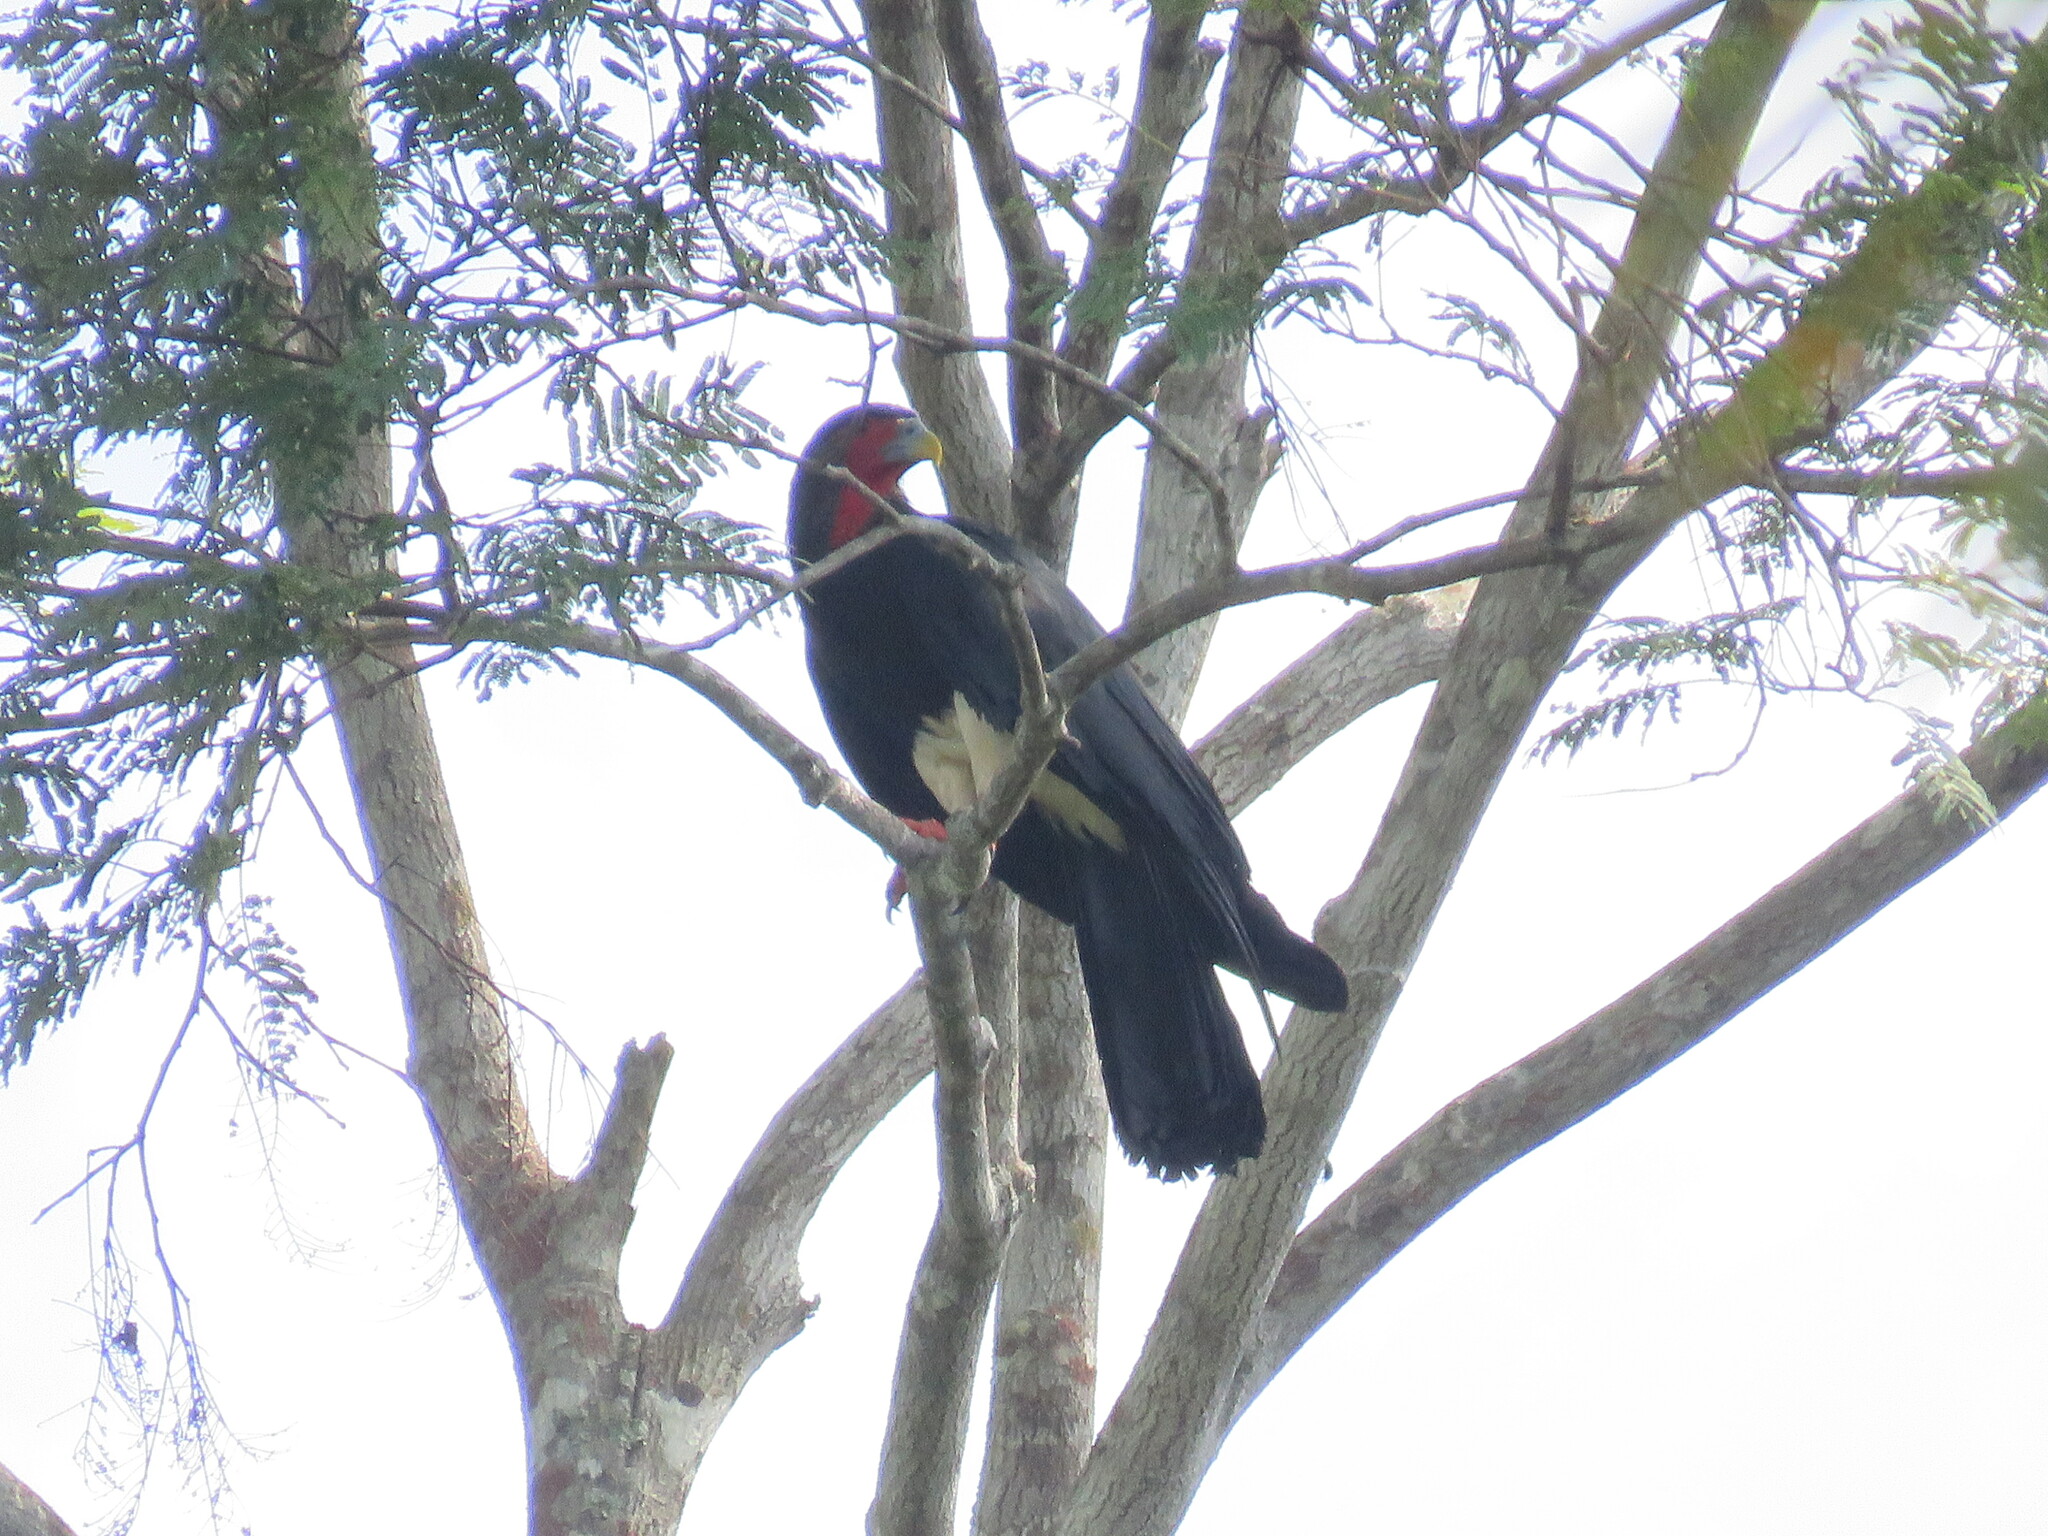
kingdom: Animalia
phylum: Chordata
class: Aves
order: Falconiformes
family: Falconidae
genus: Ibycter
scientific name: Ibycter americanus
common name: Red-throated caracara
